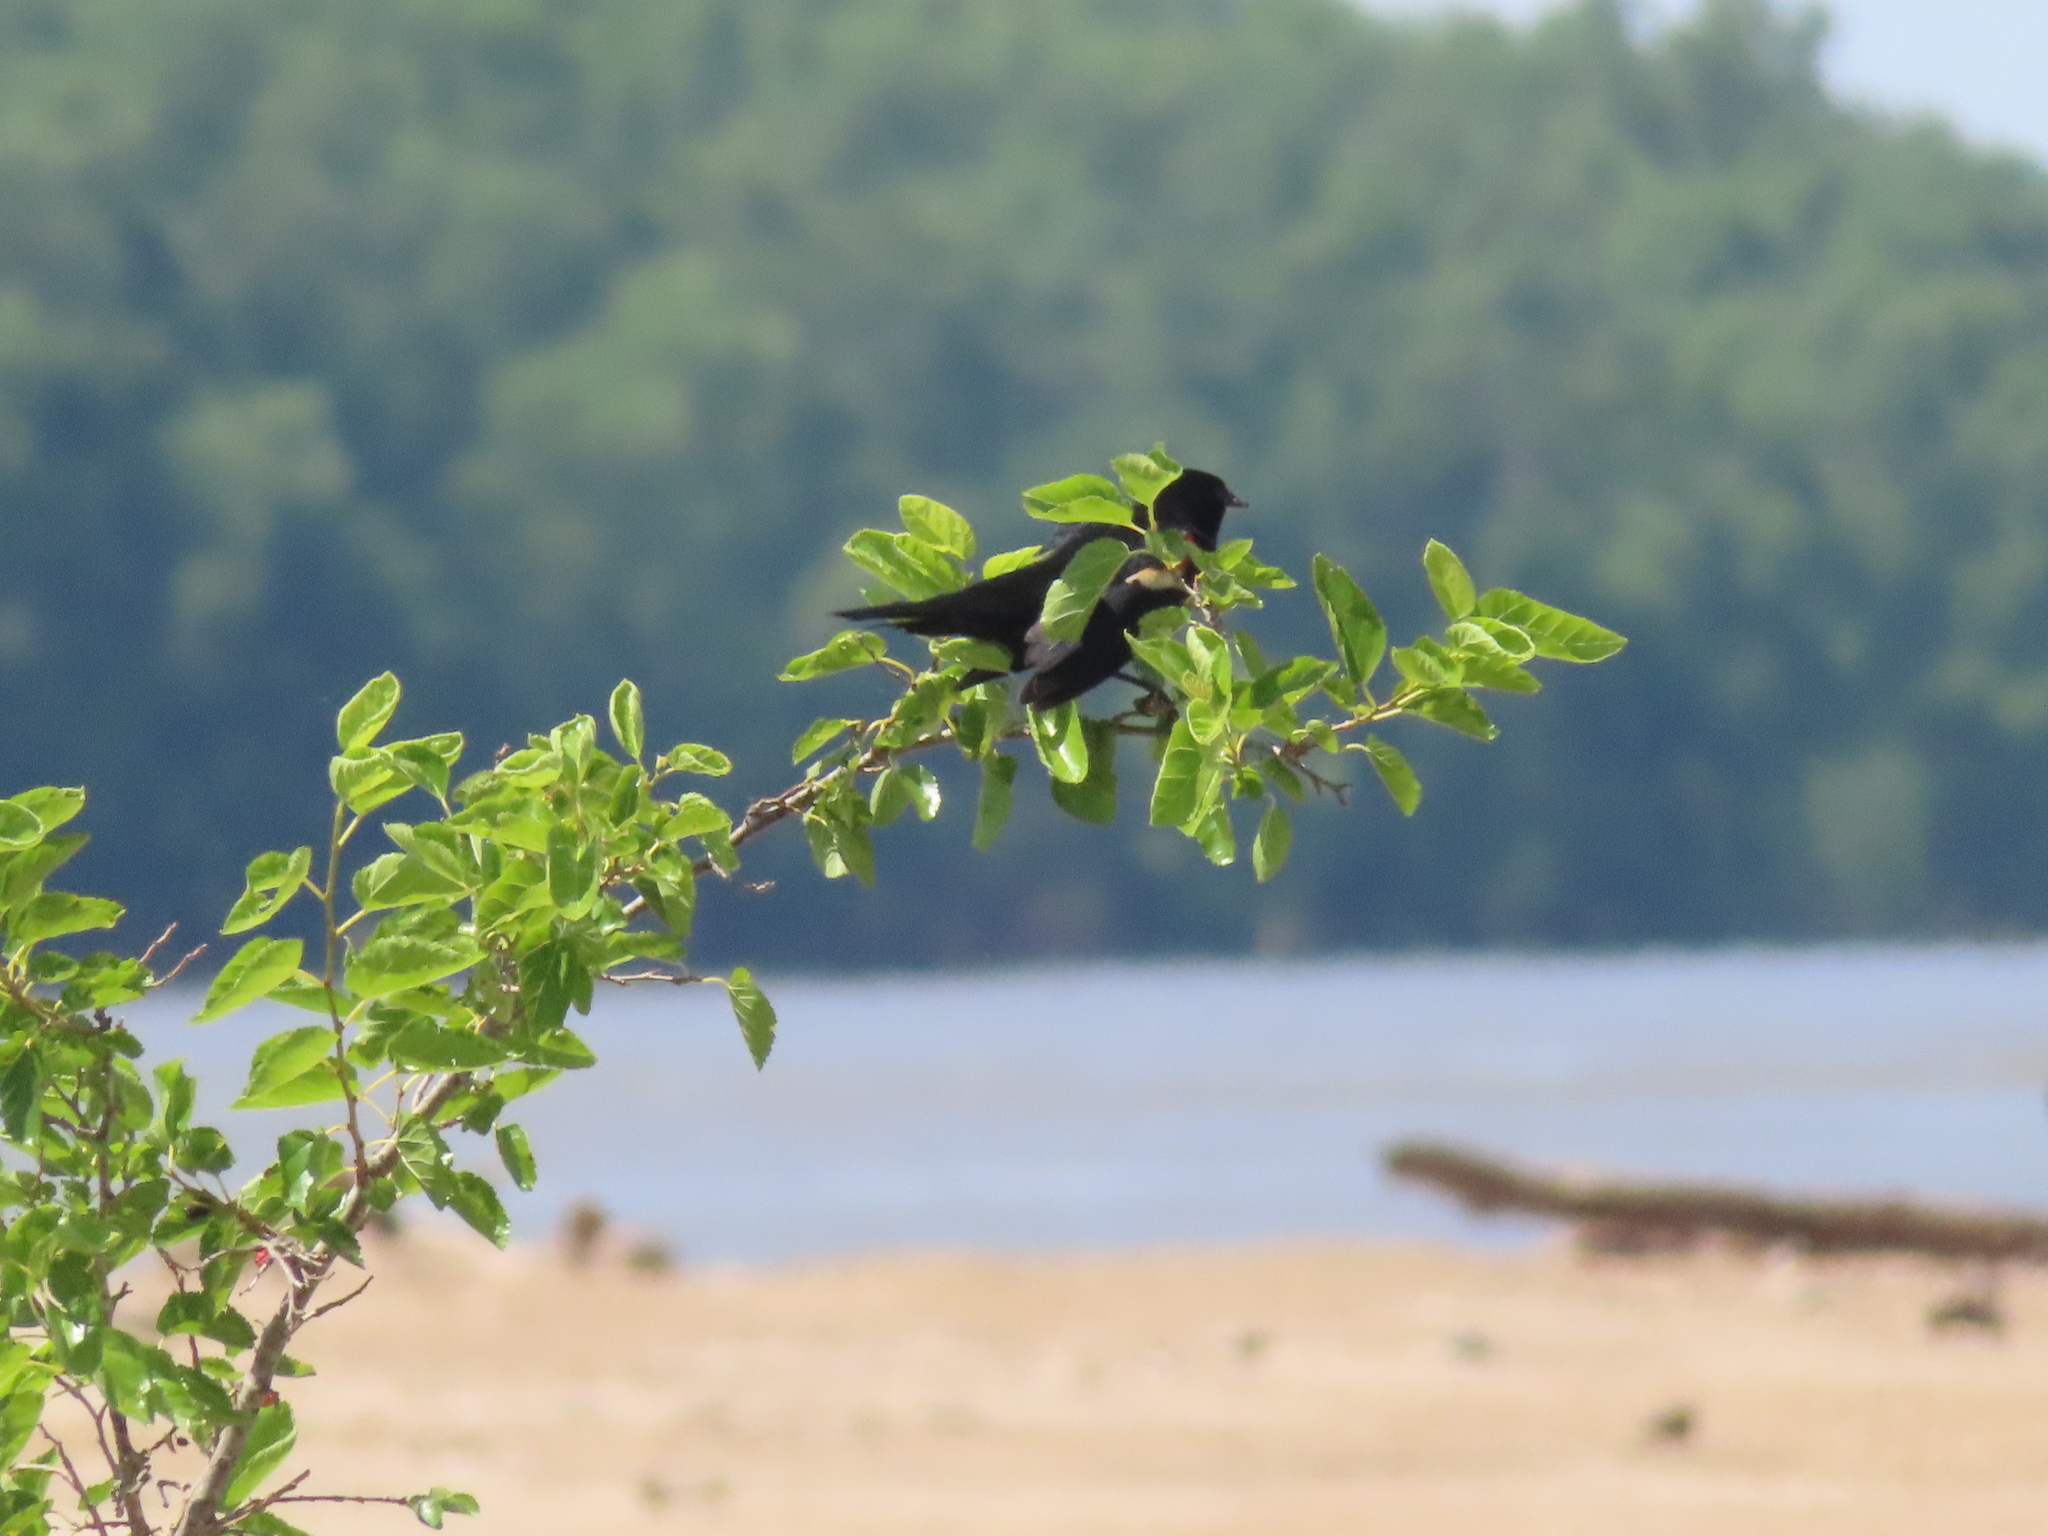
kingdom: Animalia
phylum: Chordata
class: Aves
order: Passeriformes
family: Icteridae
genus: Agelaius
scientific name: Agelaius phoeniceus
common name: Red-winged blackbird
